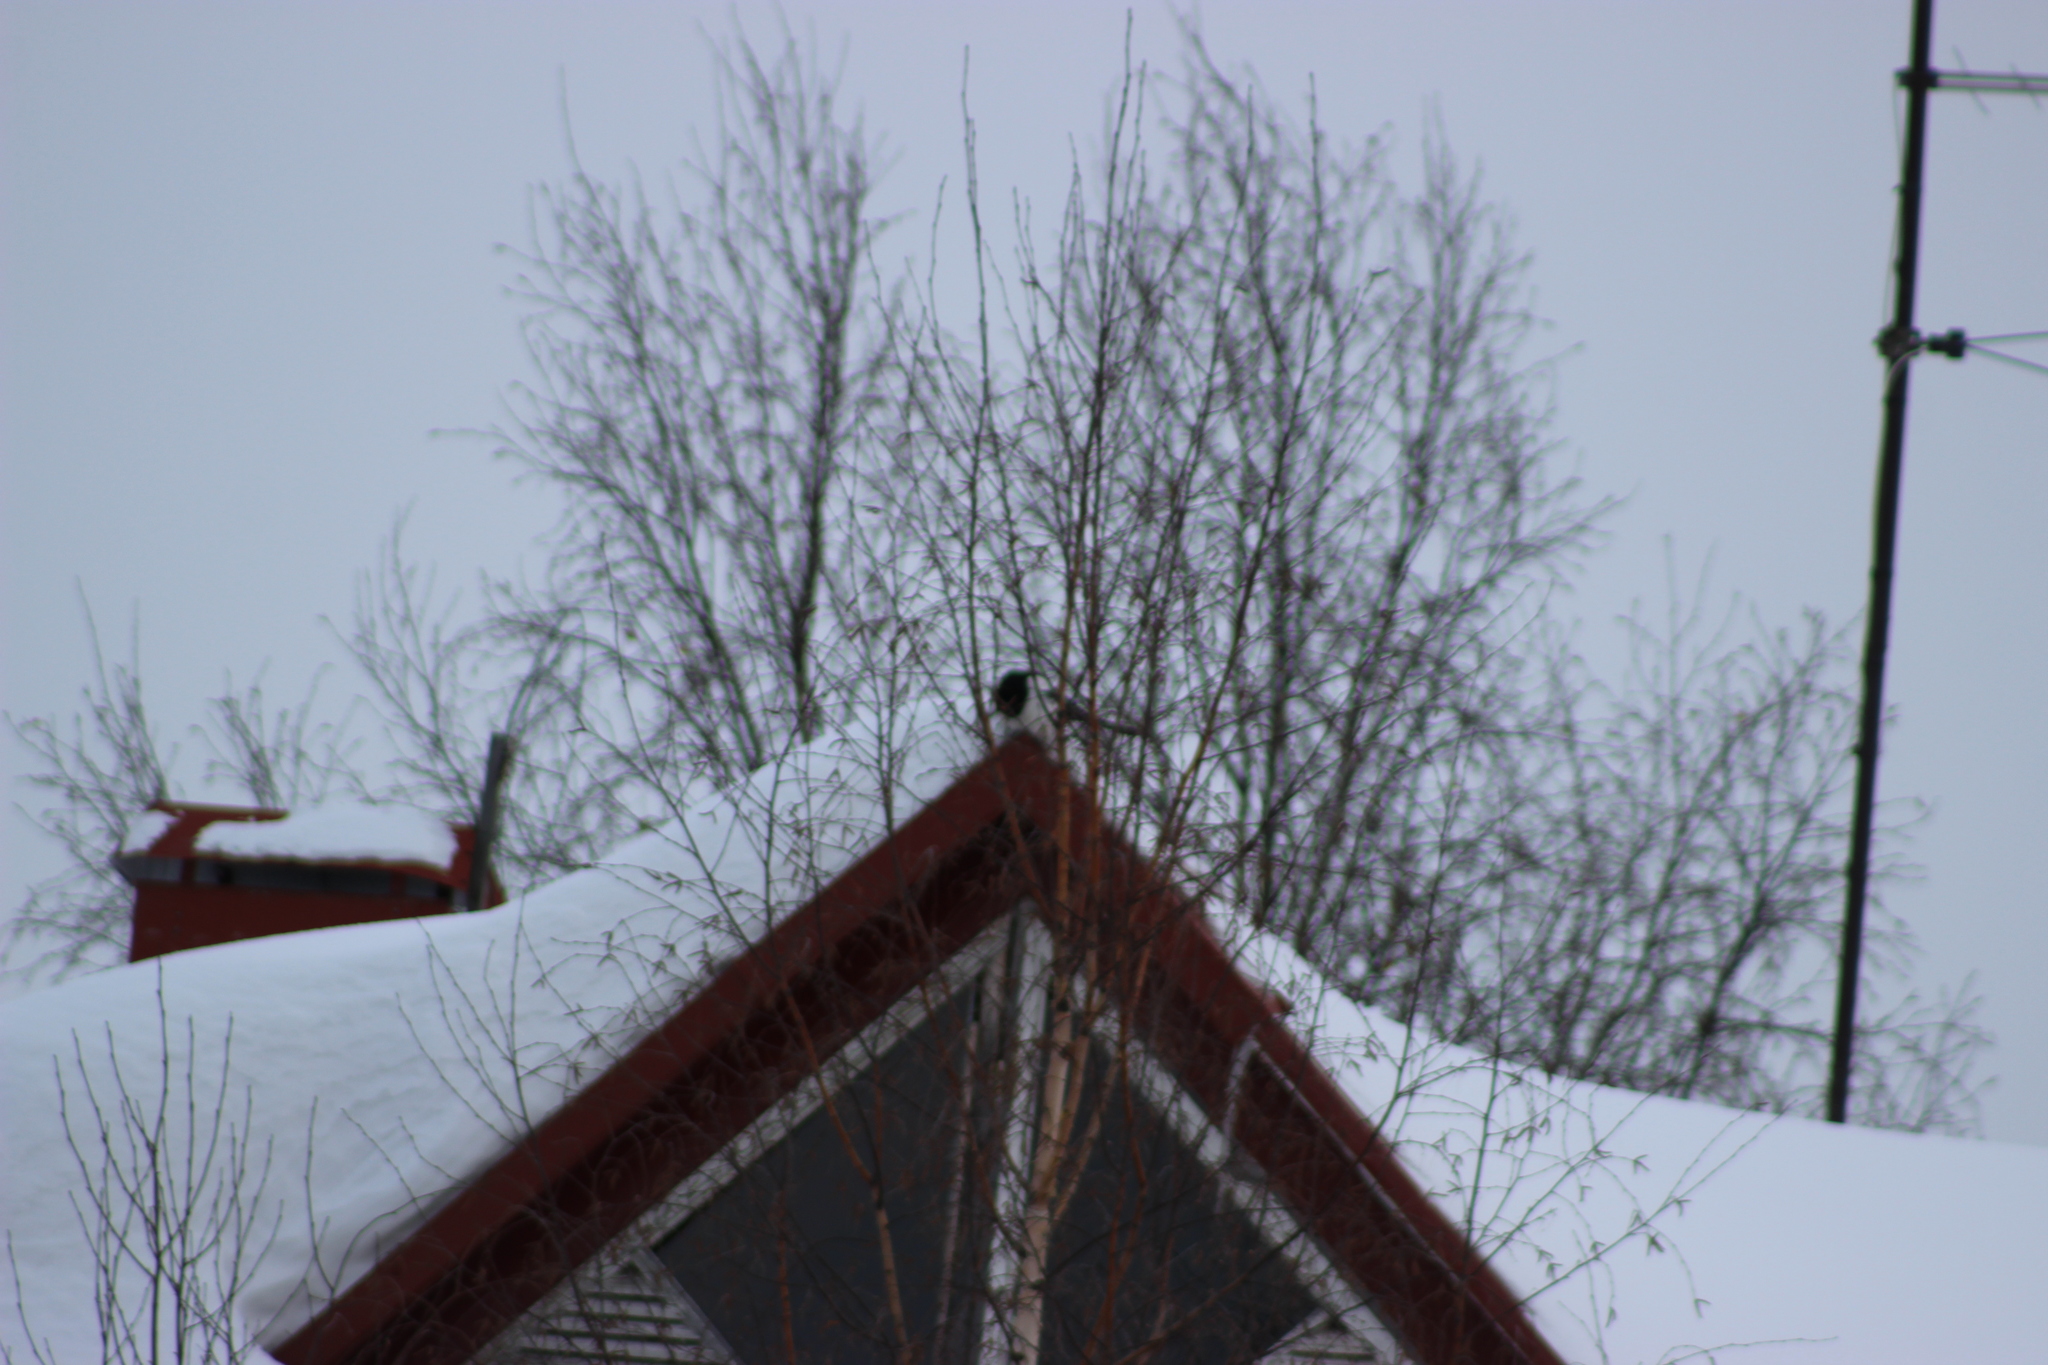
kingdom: Animalia
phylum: Chordata
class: Aves
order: Passeriformes
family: Corvidae
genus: Pica
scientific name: Pica pica
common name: Eurasian magpie
